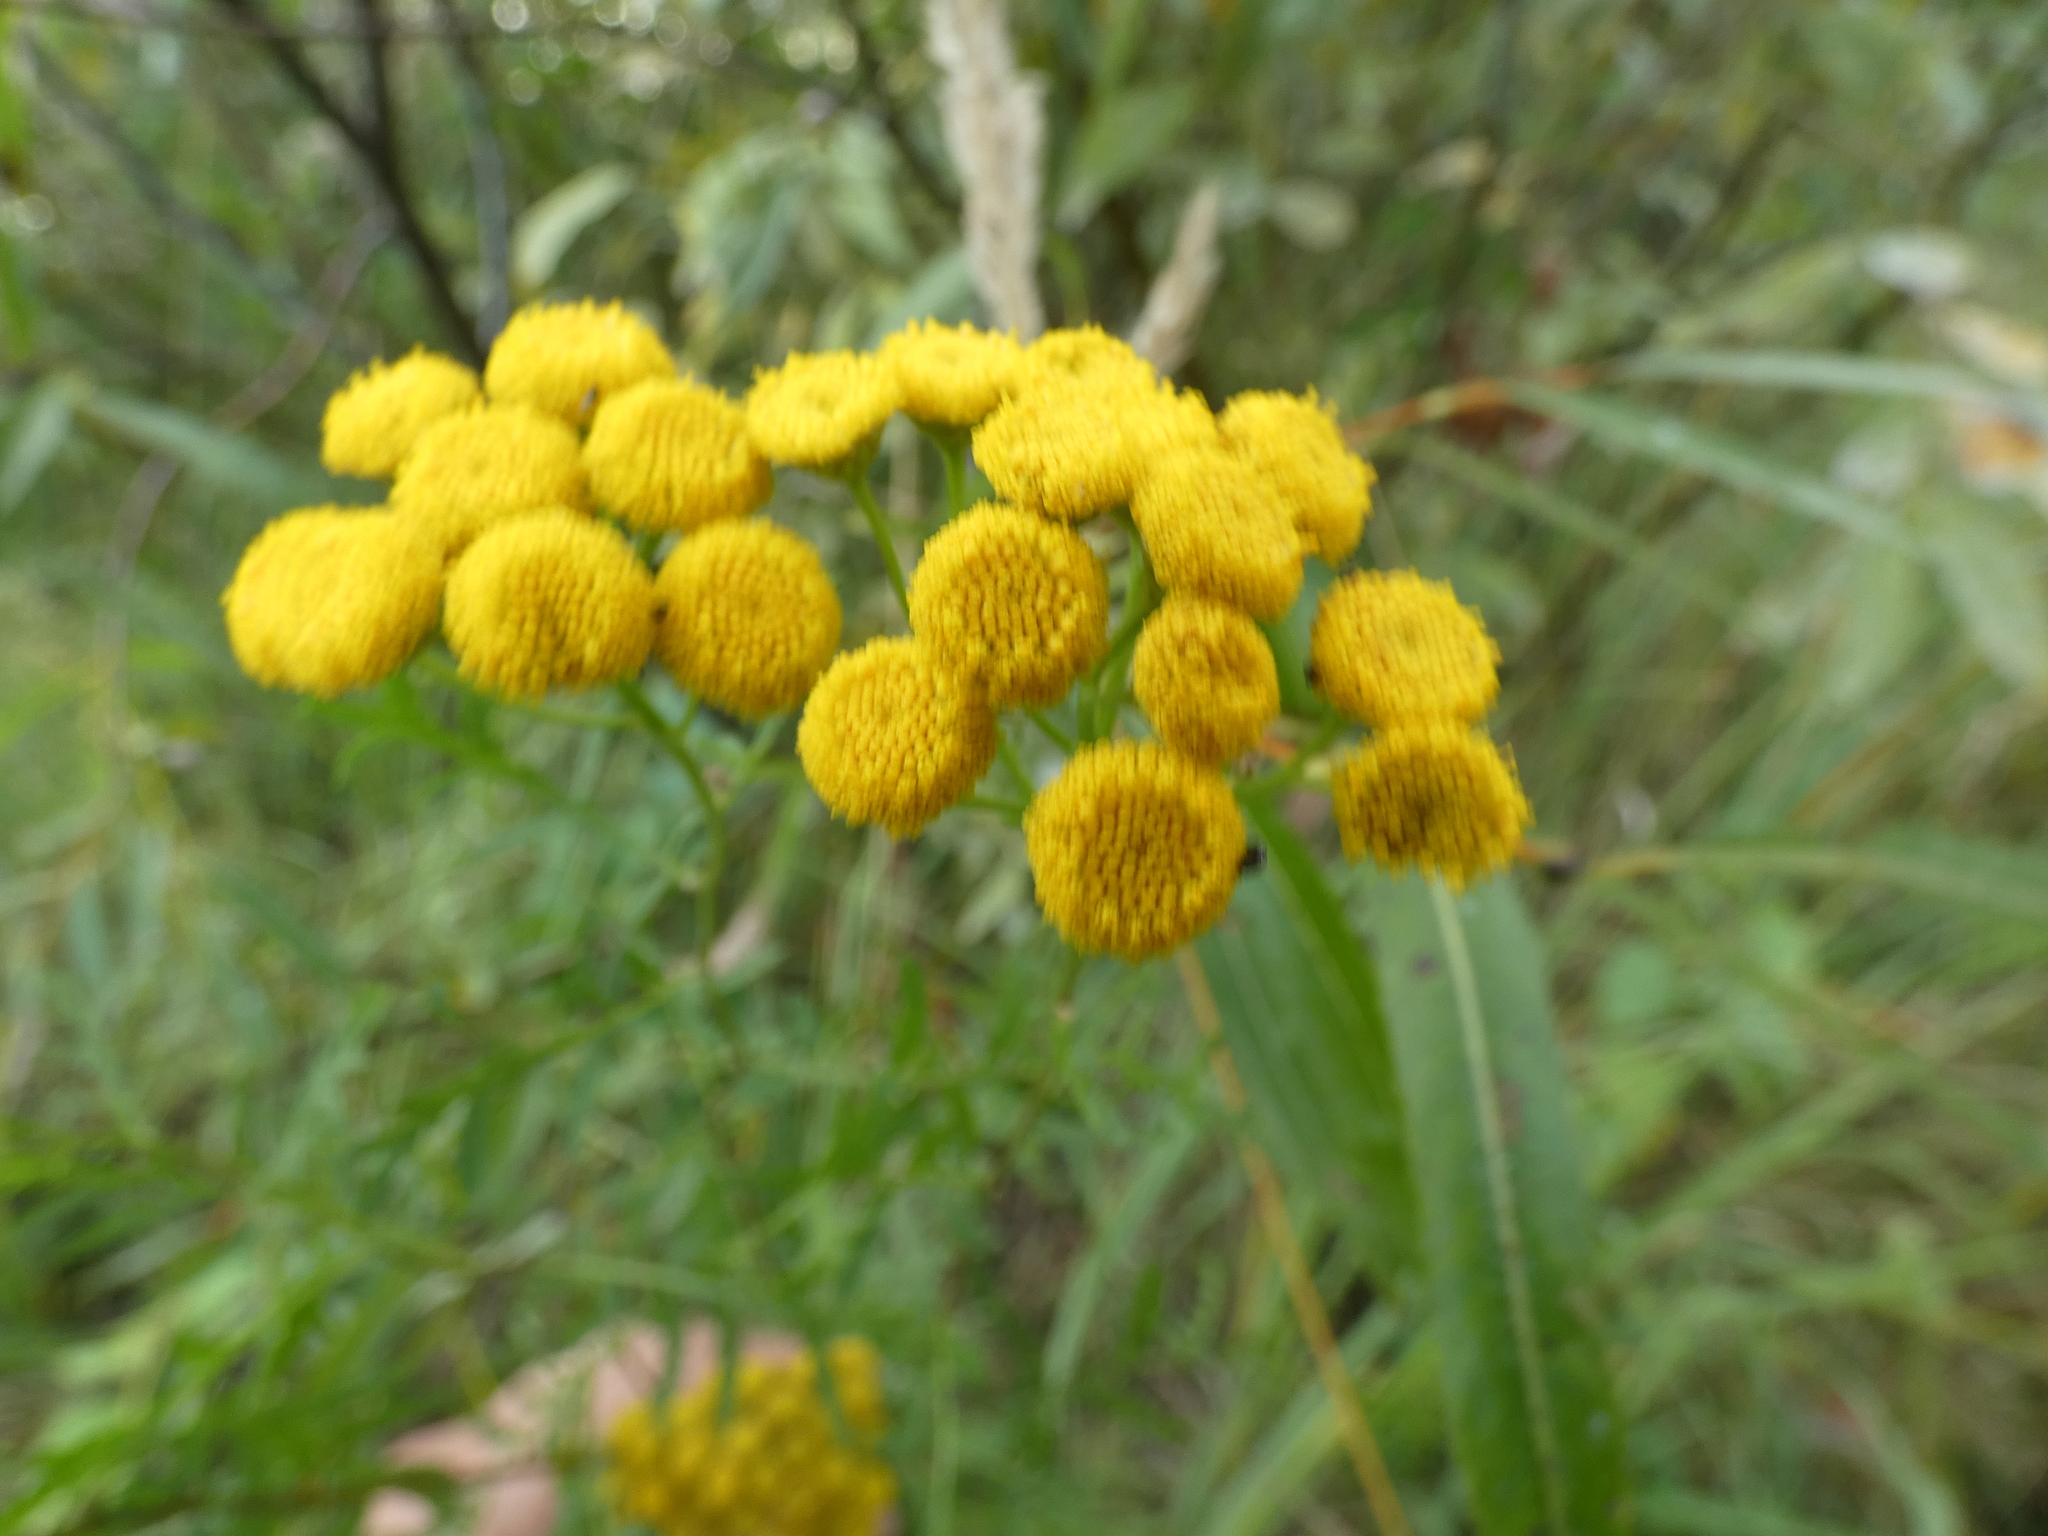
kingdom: Plantae
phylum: Tracheophyta
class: Magnoliopsida
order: Asterales
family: Asteraceae
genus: Tanacetum
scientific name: Tanacetum vulgare
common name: Common tansy
